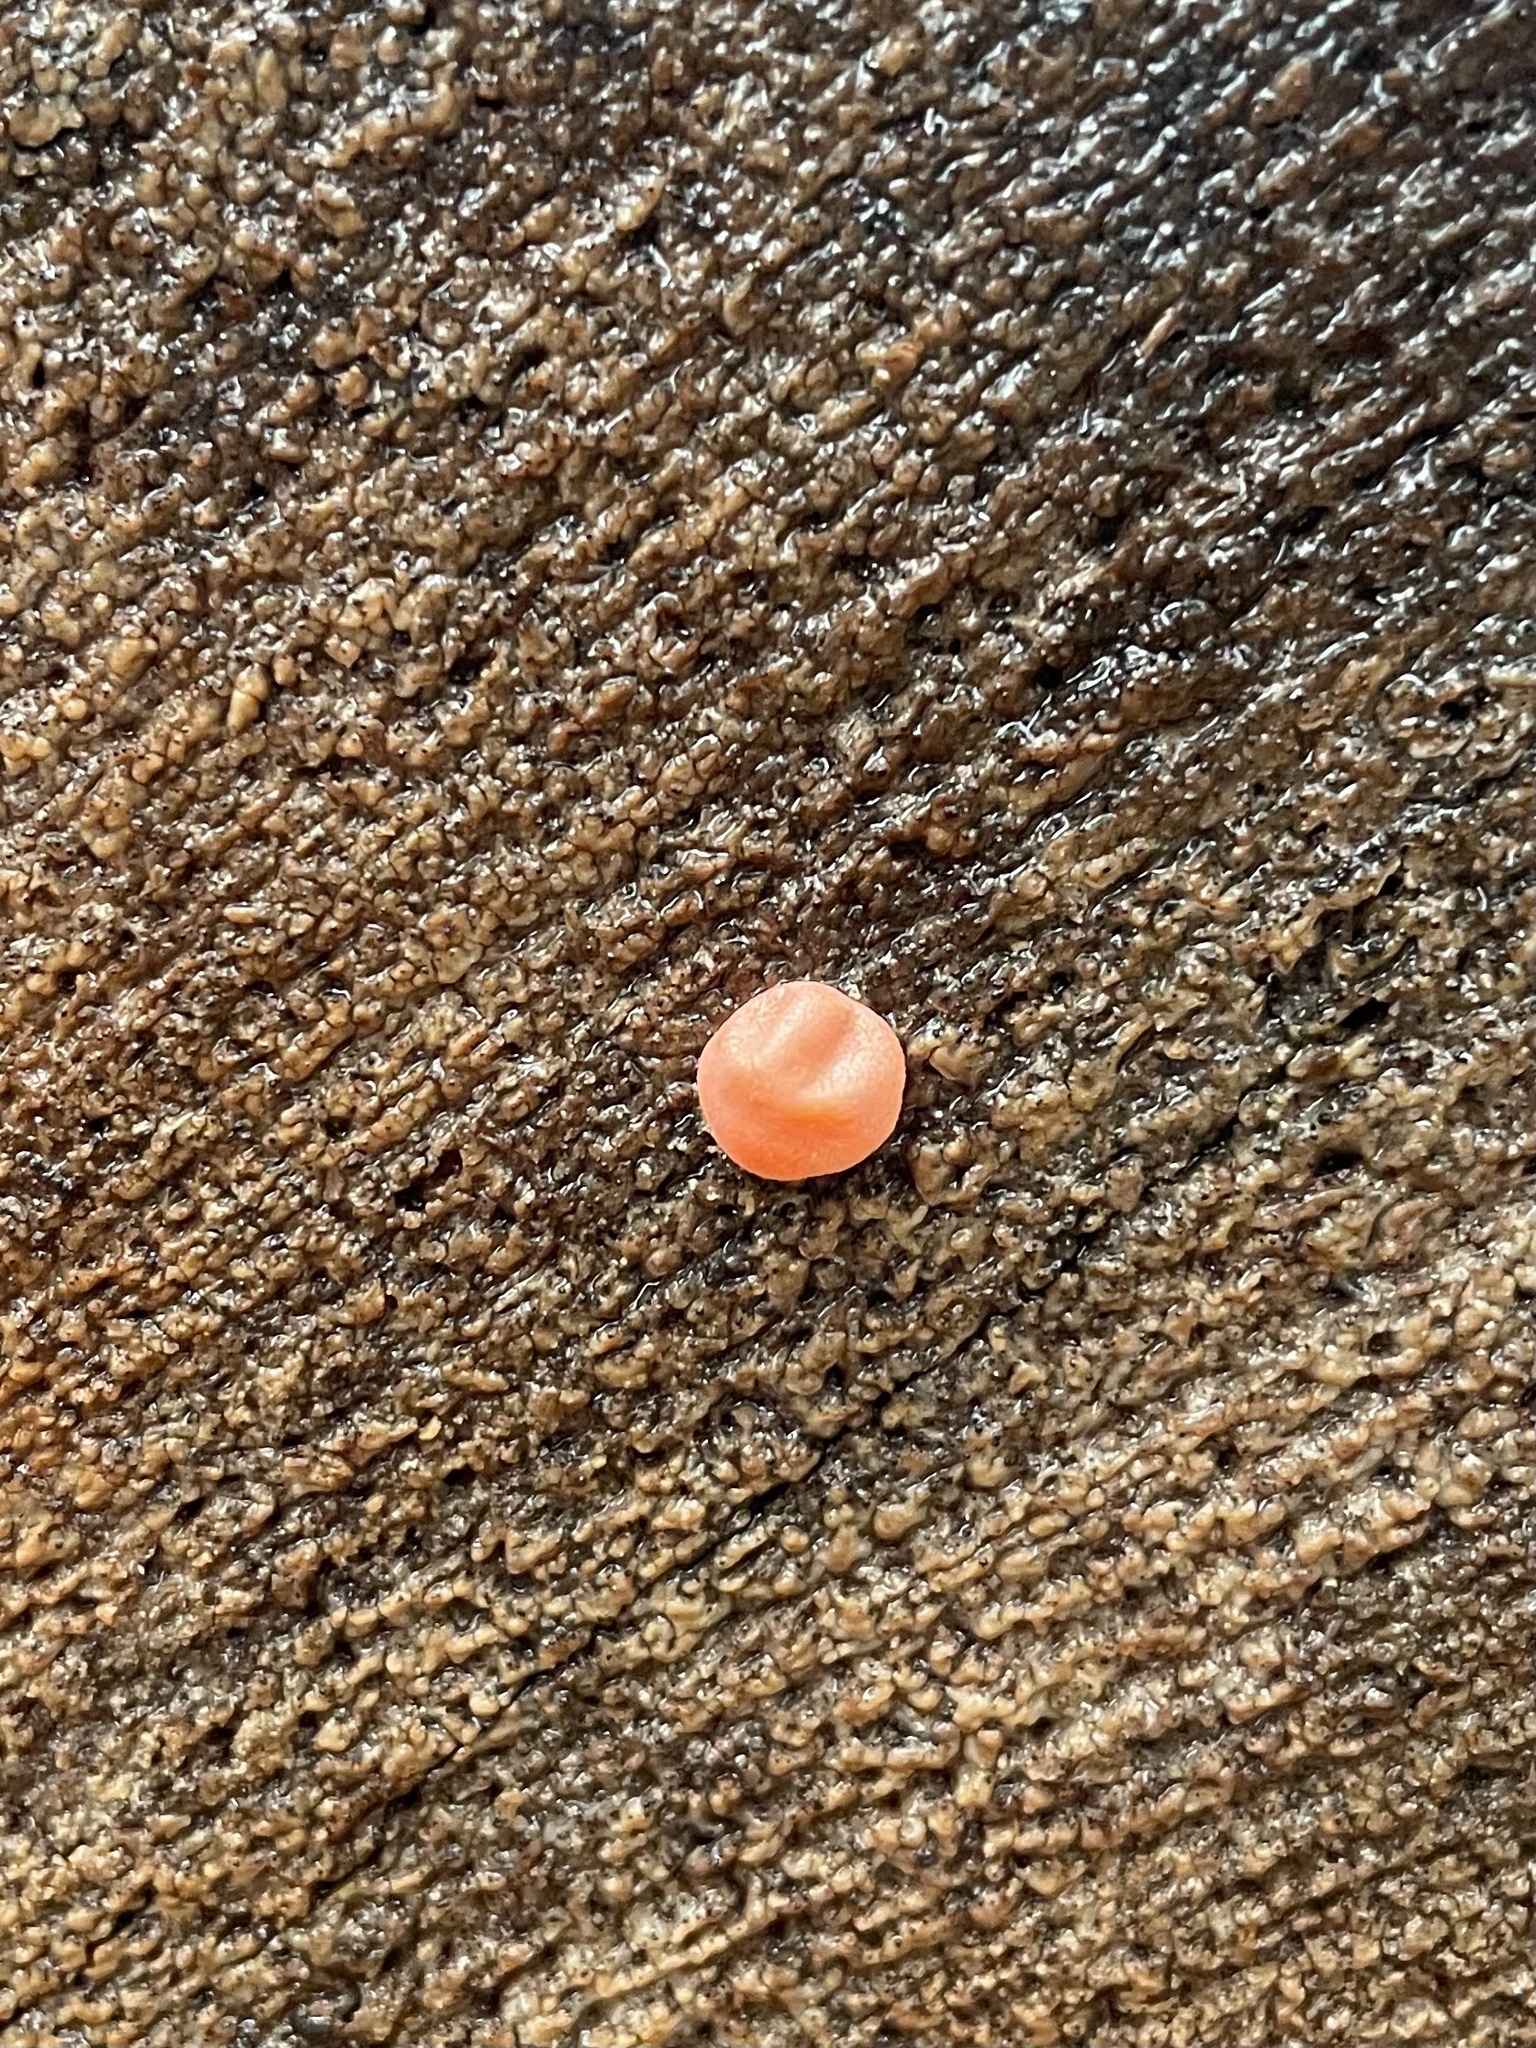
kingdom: Protozoa
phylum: Mycetozoa
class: Myxomycetes
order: Cribrariales
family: Tubiferaceae
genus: Lycogala
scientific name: Lycogala epidendrum
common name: Wolf's milk
